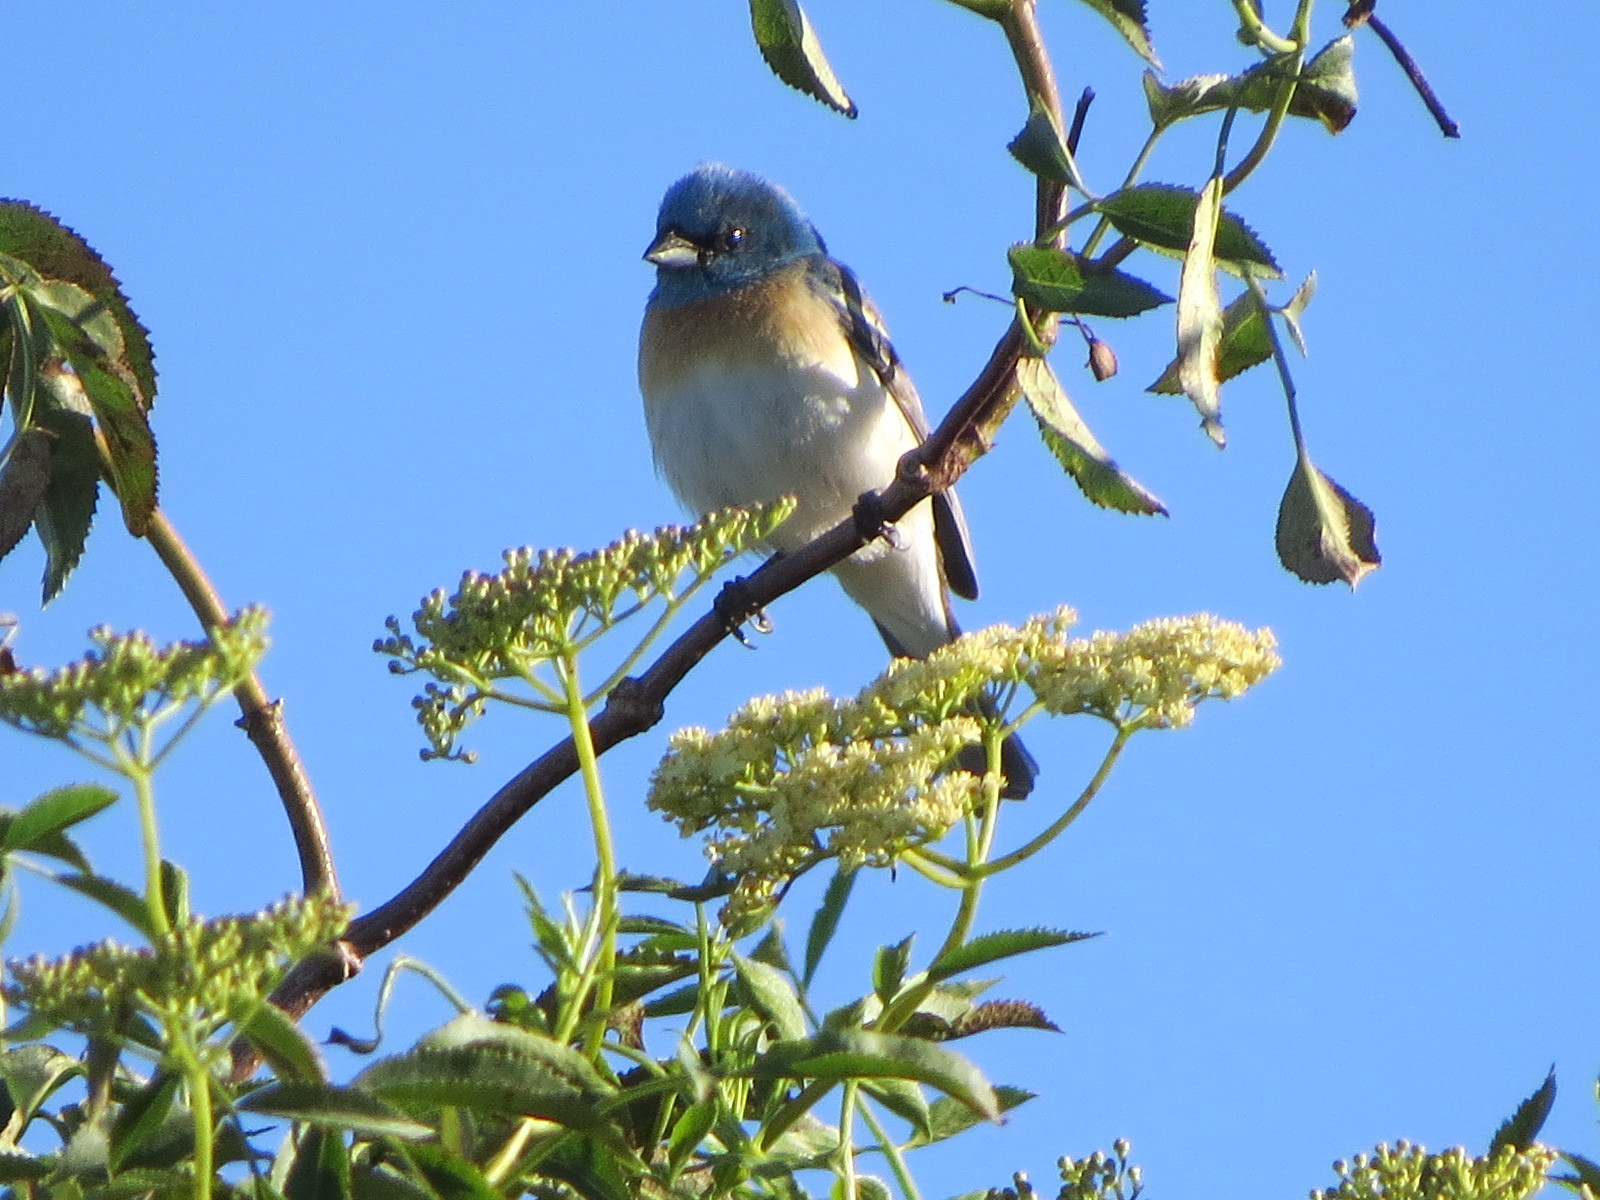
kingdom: Animalia
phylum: Chordata
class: Aves
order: Passeriformes
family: Cardinalidae
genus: Passerina
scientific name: Passerina amoena
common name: Lazuli bunting
